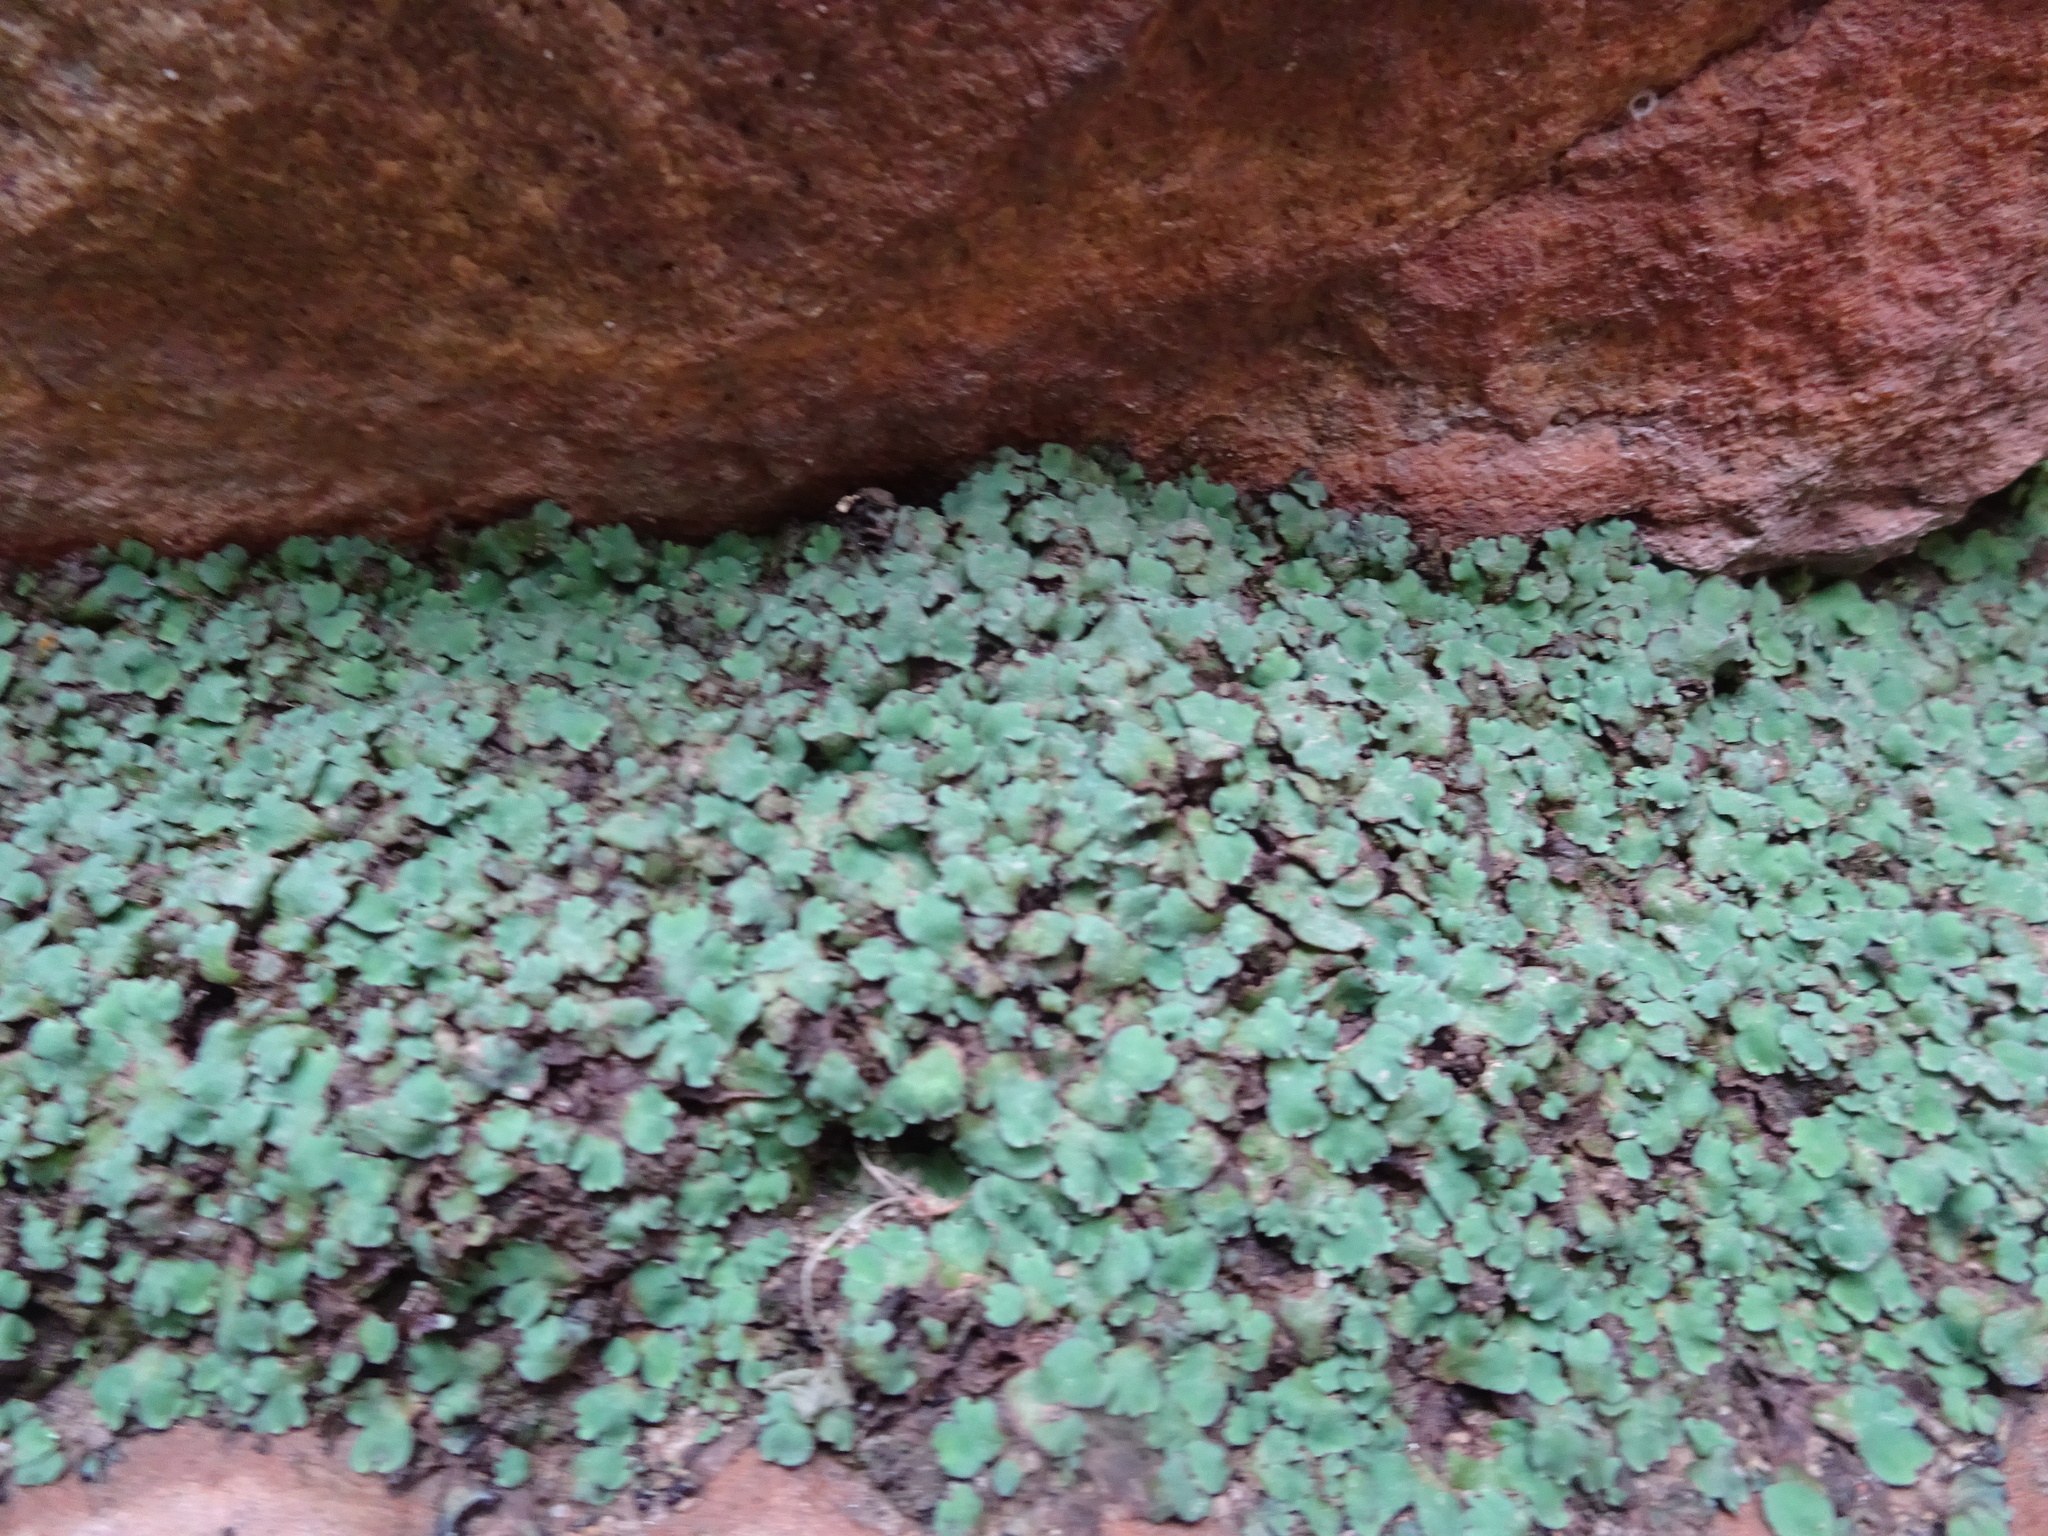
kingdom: Plantae
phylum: Marchantiophyta
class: Marchantiopsida
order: Marchantiales
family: Aytoniaceae
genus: Plagiochasma
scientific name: Plagiochasma rupestre
